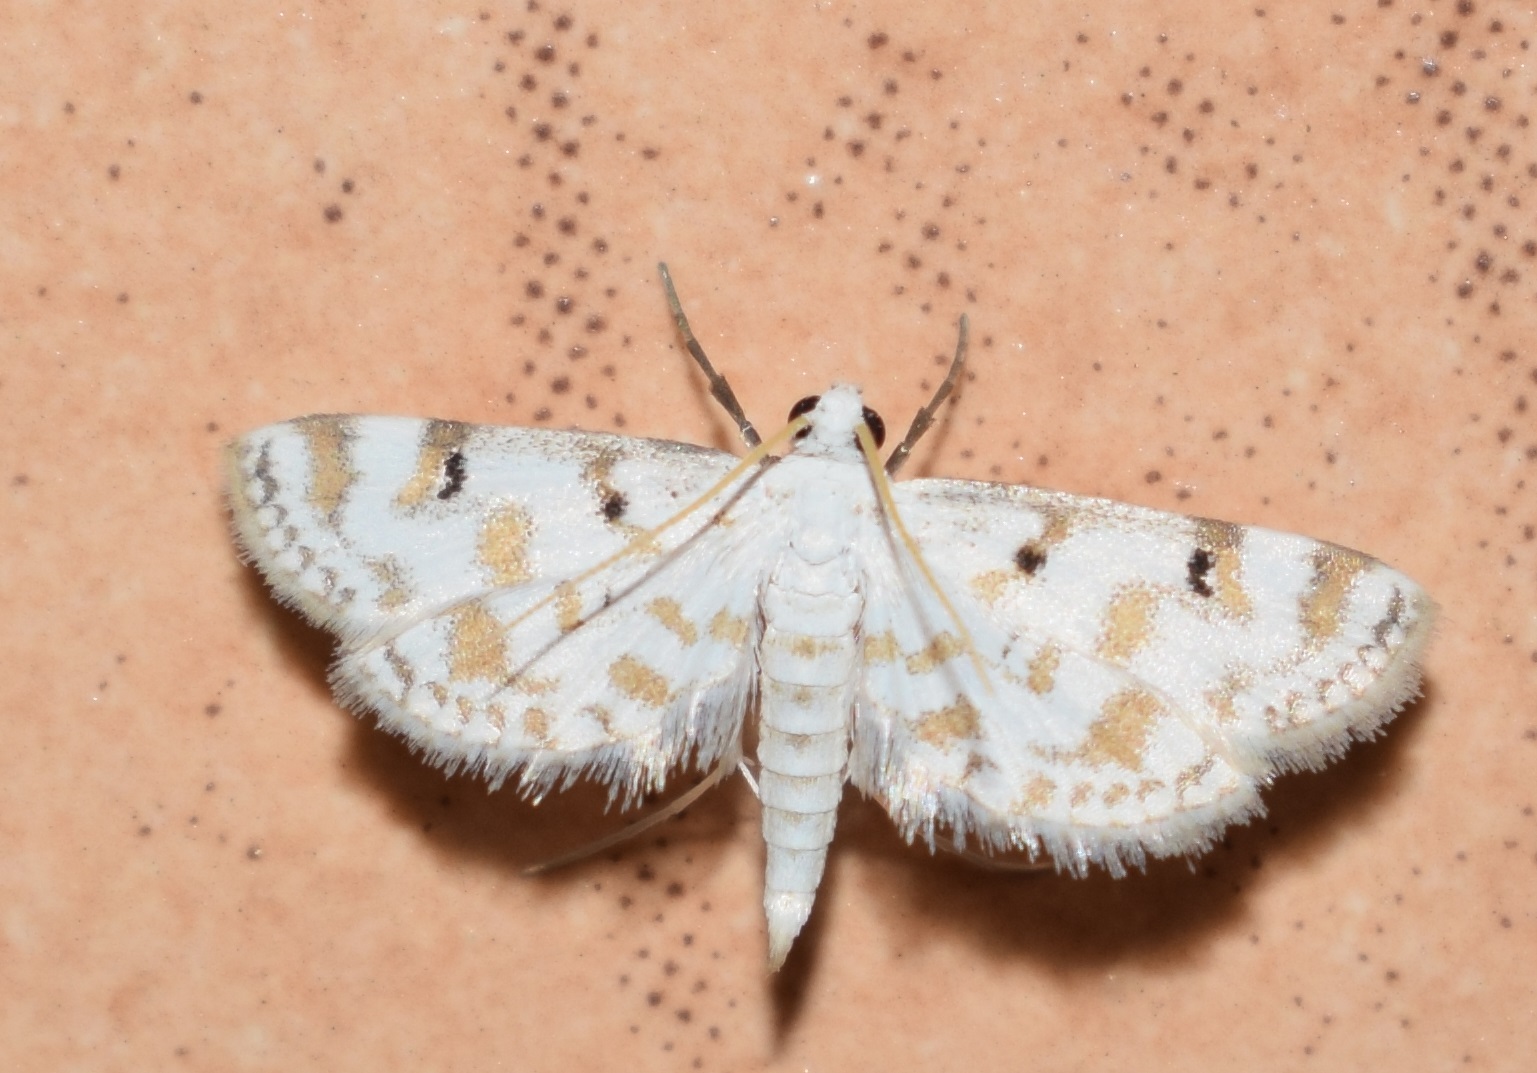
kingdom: Animalia
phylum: Arthropoda
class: Insecta
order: Lepidoptera
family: Crambidae
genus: Parapoynx
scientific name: Parapoynx stagnalis
